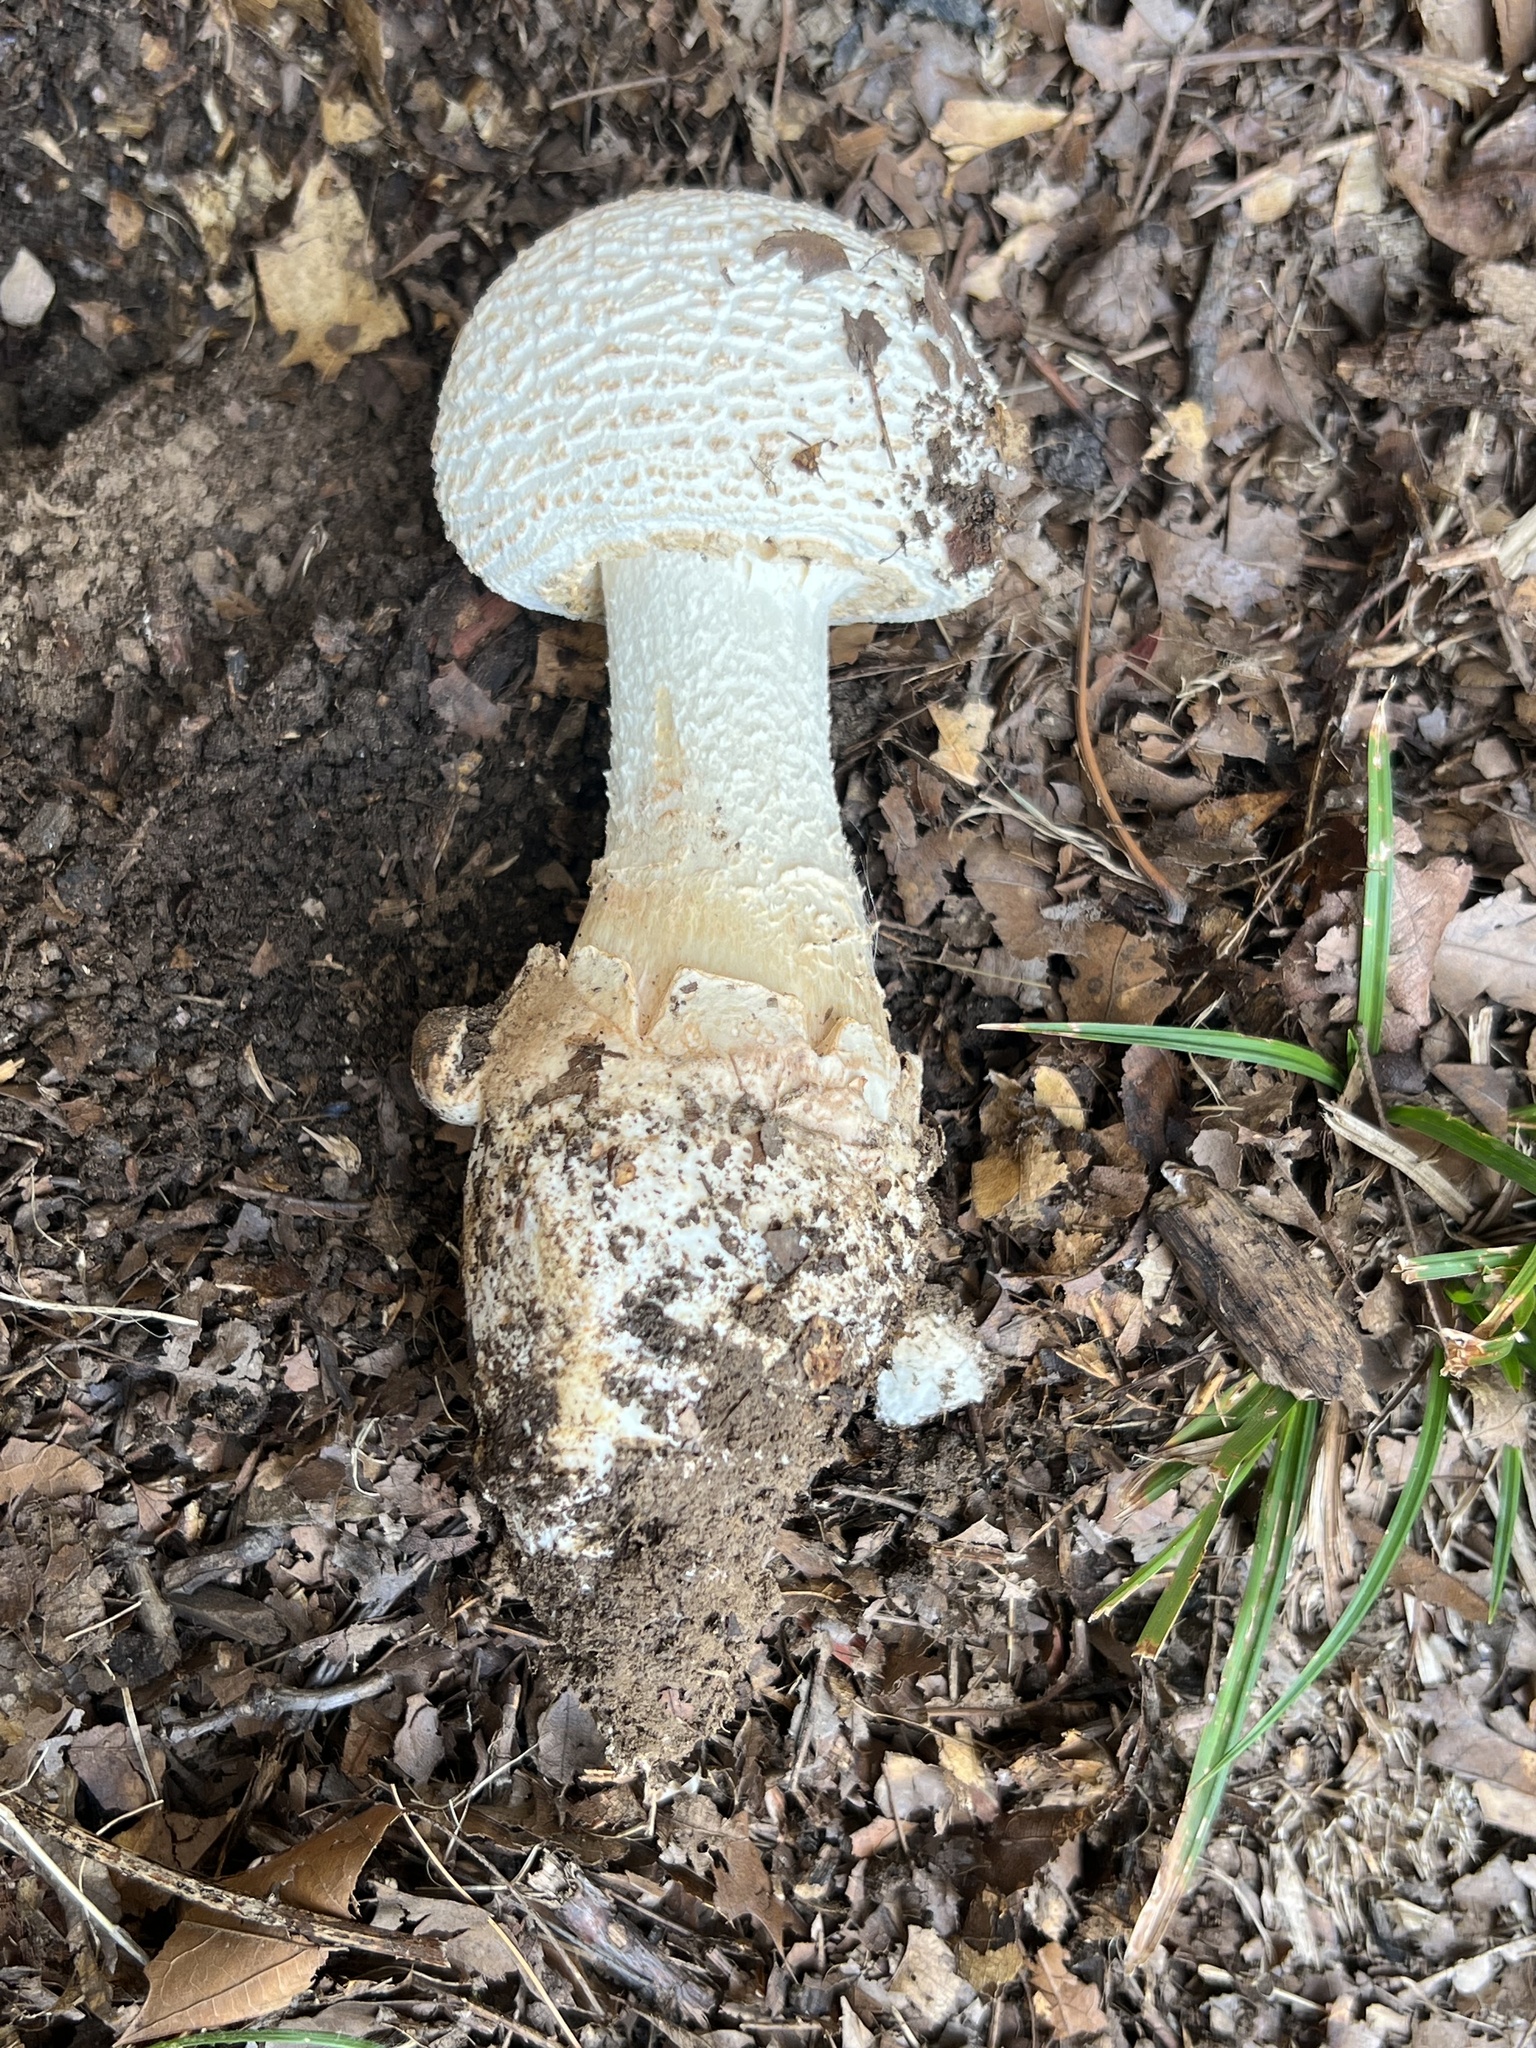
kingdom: Fungi
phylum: Basidiomycota
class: Agaricomycetes
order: Agaricales
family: Amanitaceae
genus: Amanita
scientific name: Amanita daucipes
